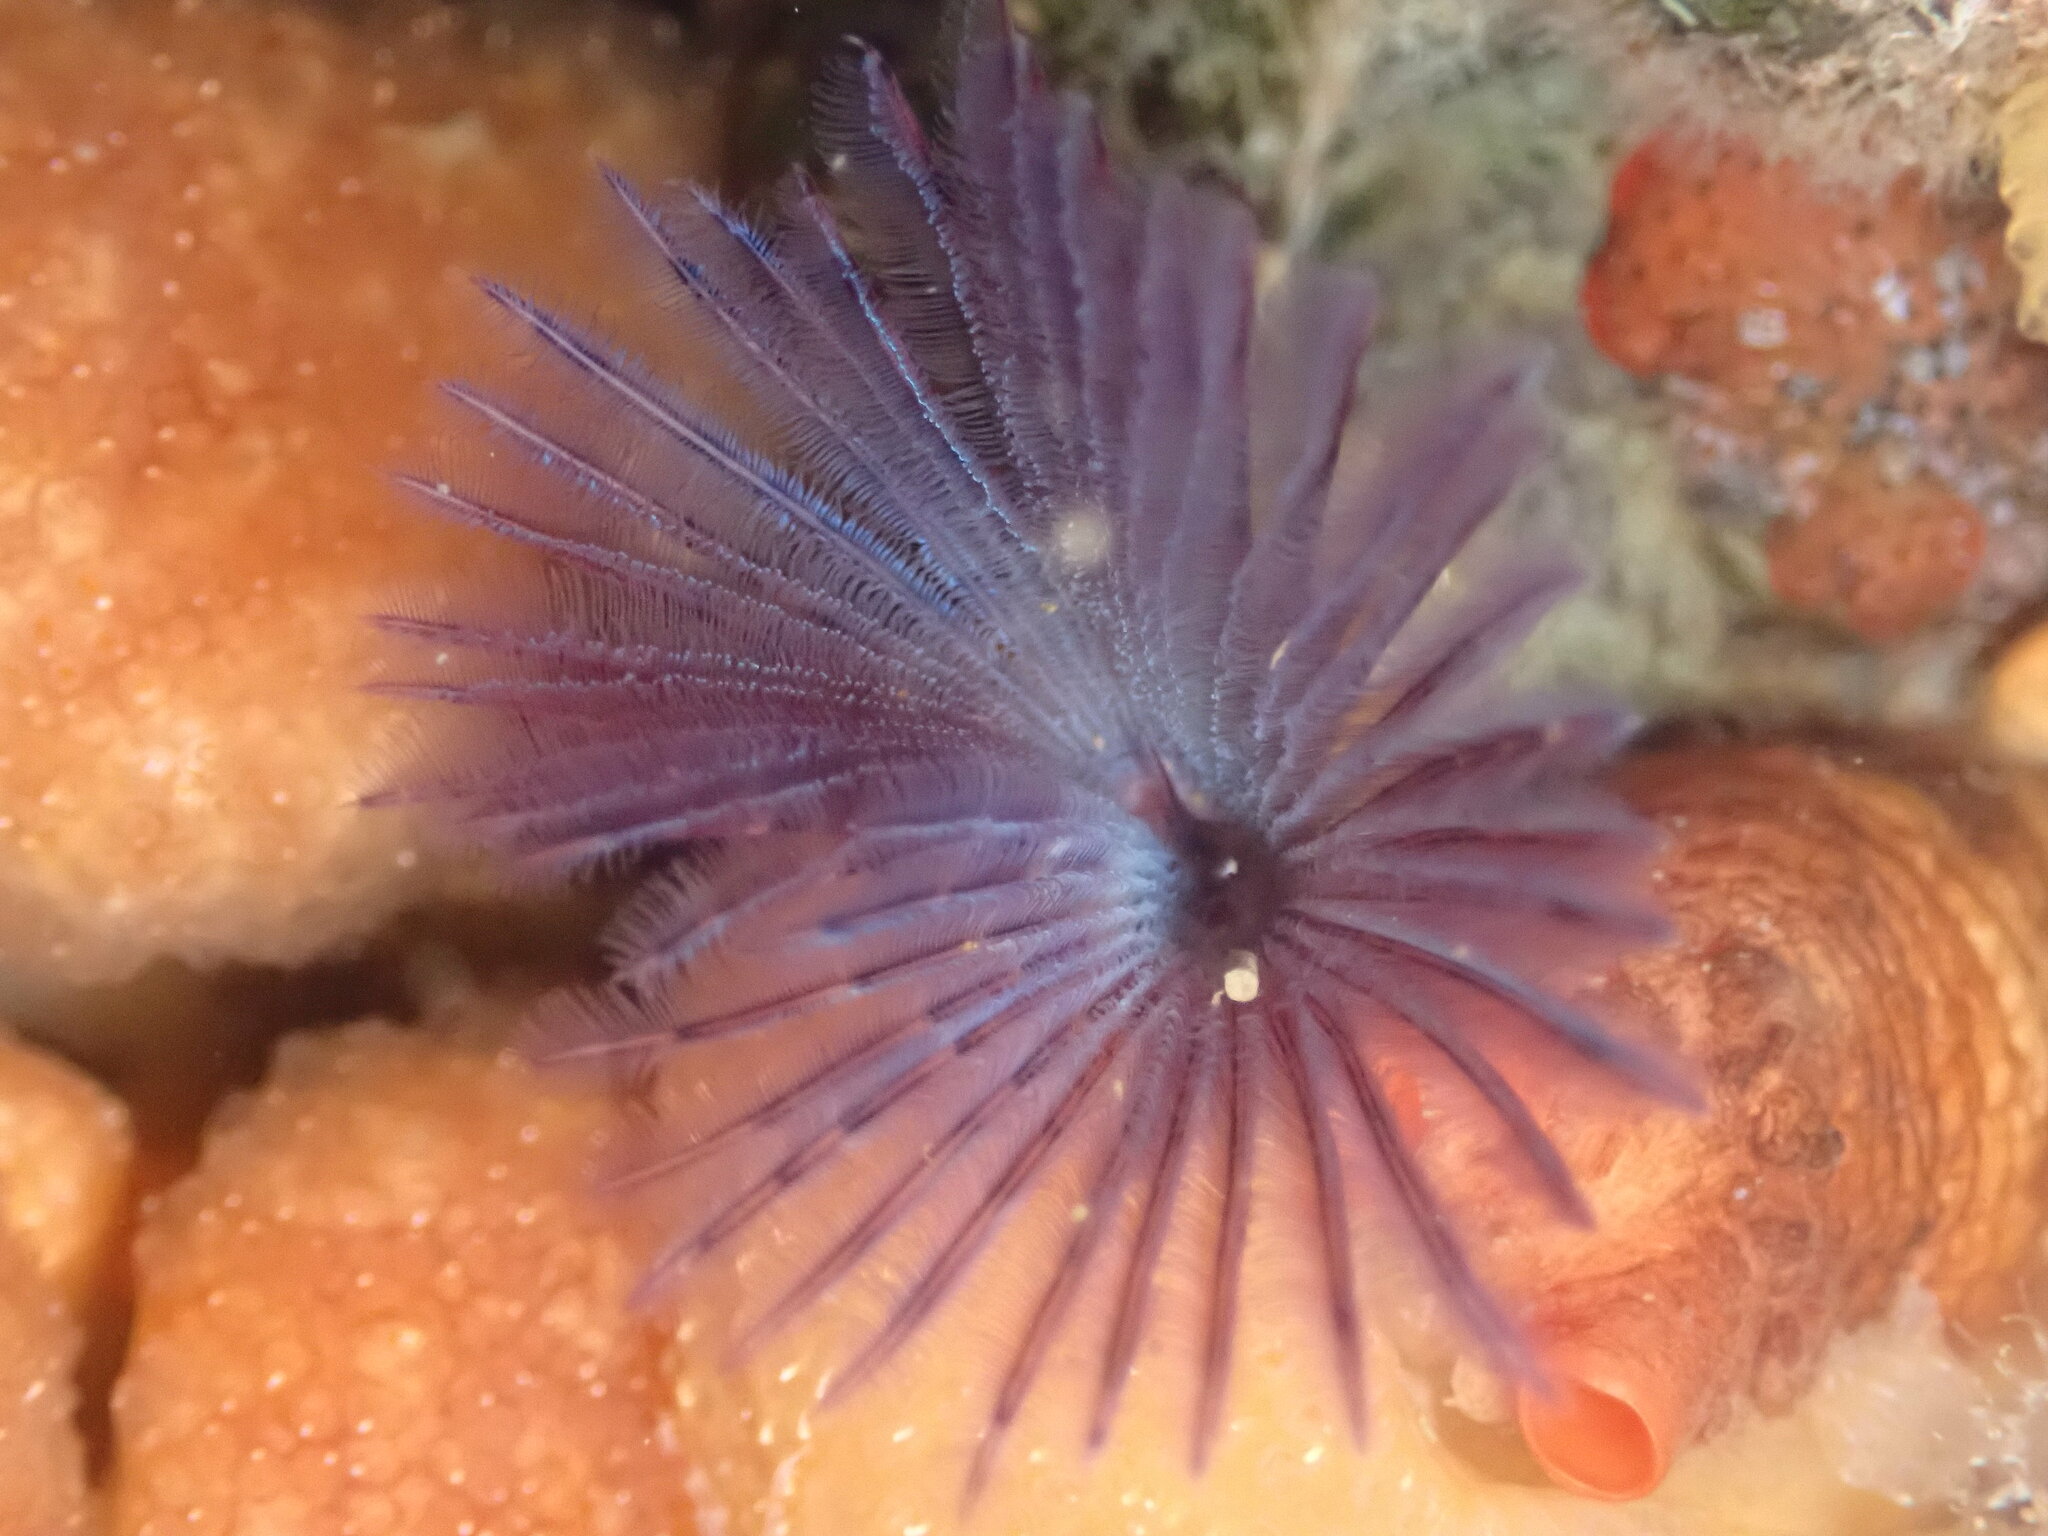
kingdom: Animalia
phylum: Annelida
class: Polychaeta
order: Sabellida
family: Sabellidae
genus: Bispira
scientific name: Bispira pacifica
